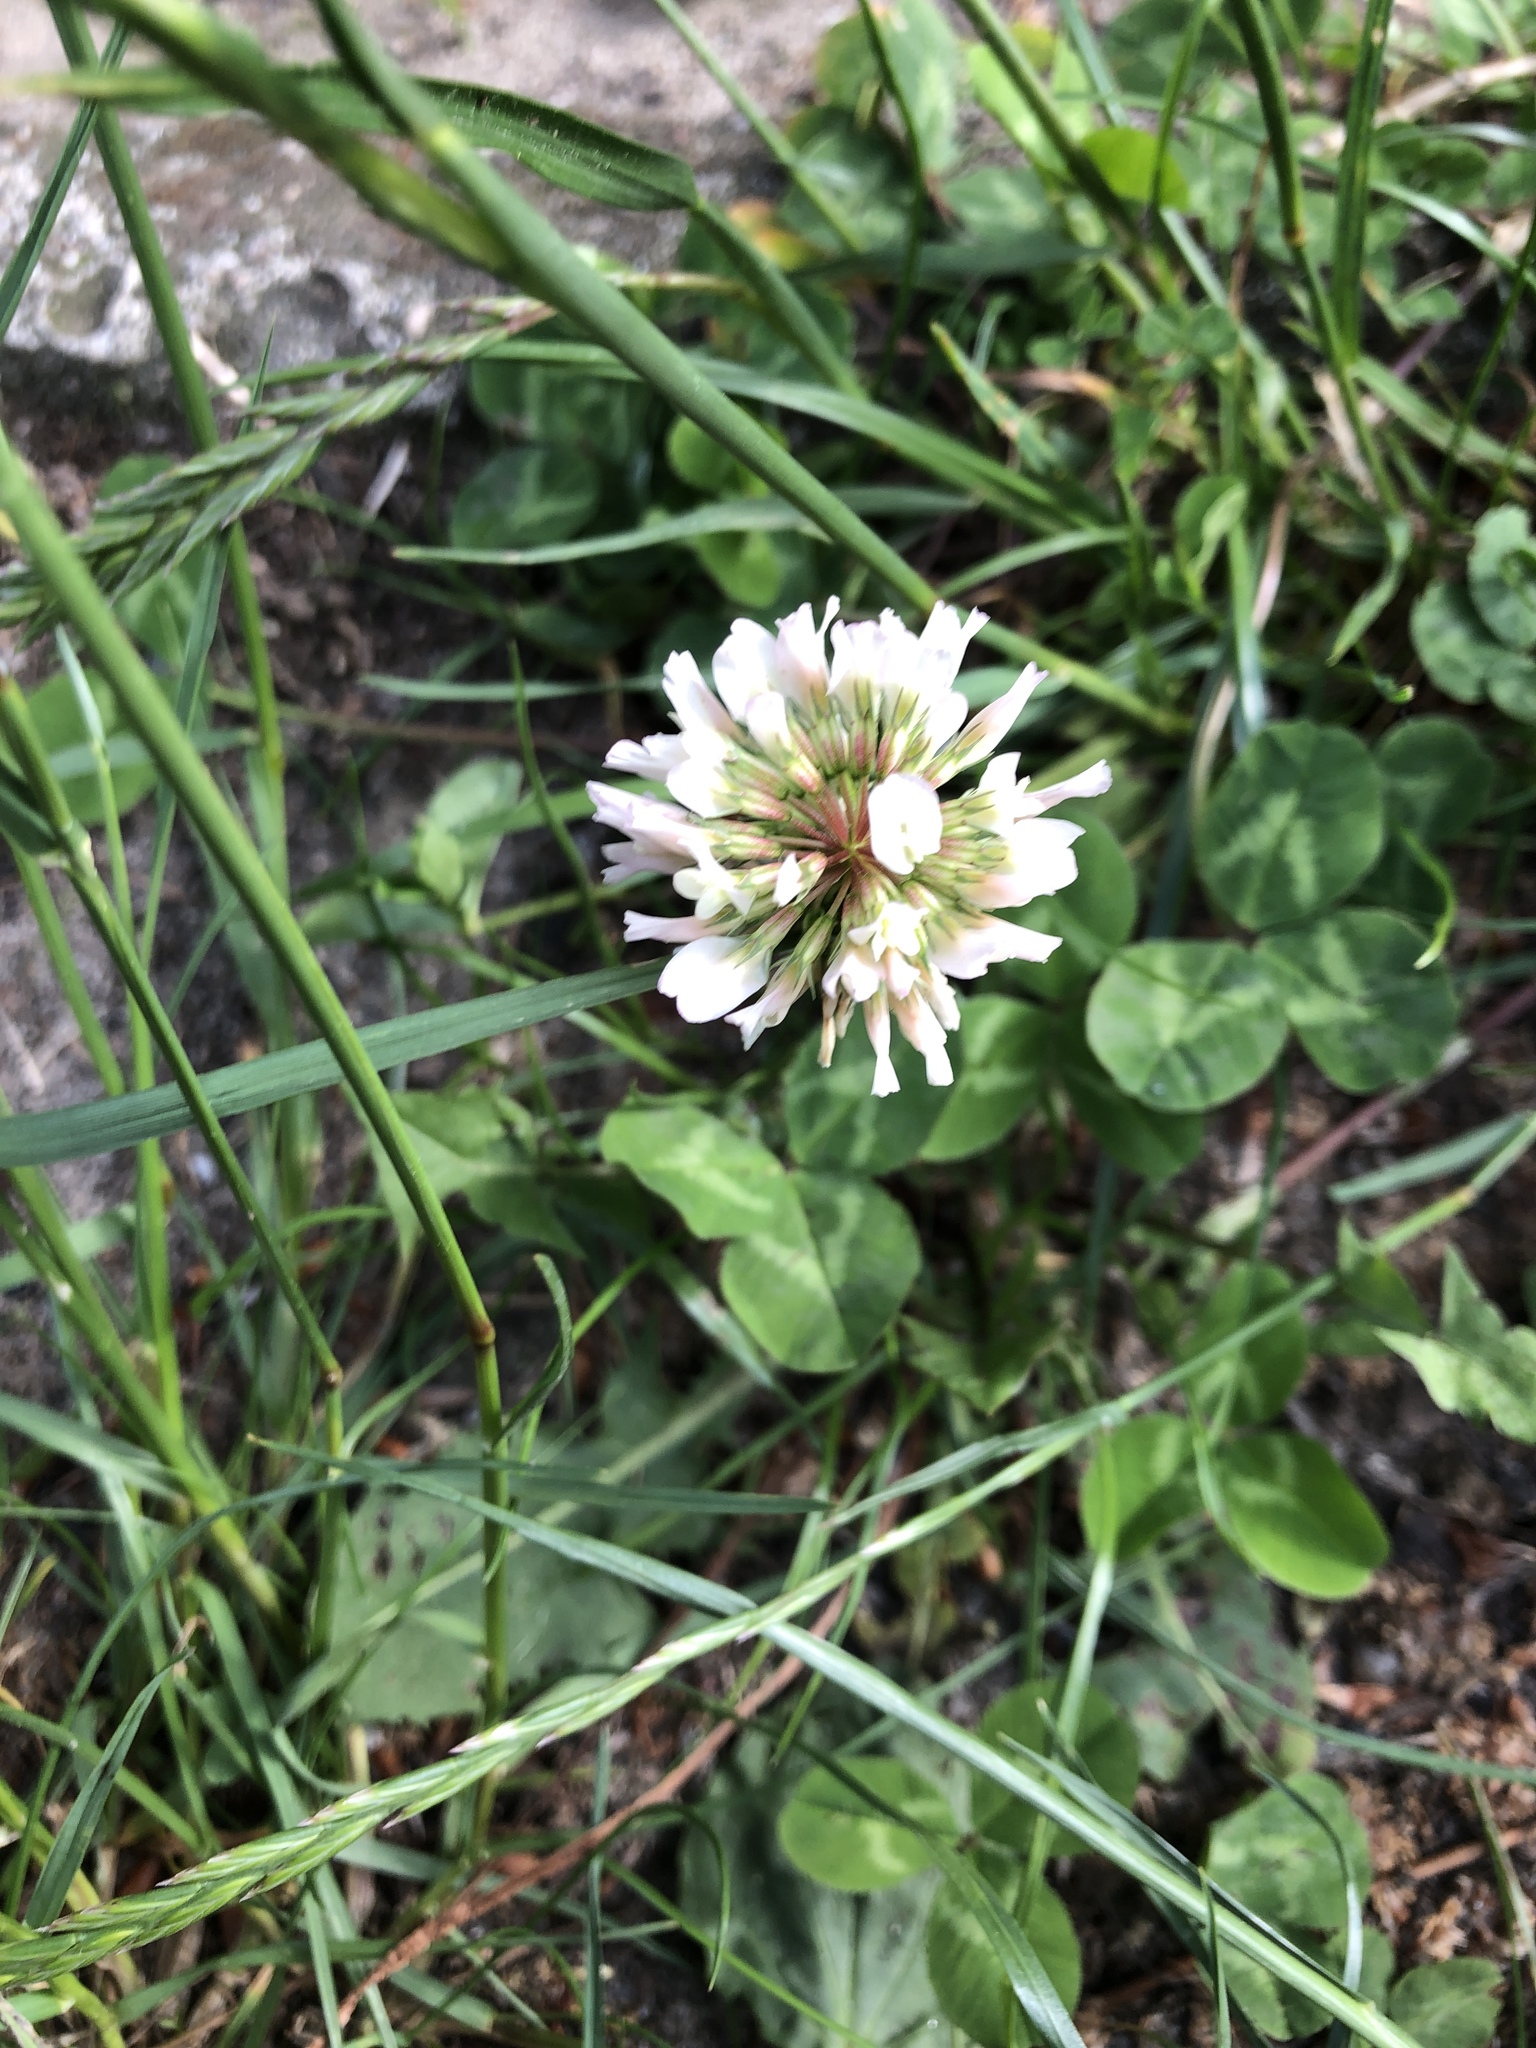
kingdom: Plantae
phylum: Tracheophyta
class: Magnoliopsida
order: Fabales
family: Fabaceae
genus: Trifolium
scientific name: Trifolium repens
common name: White clover
